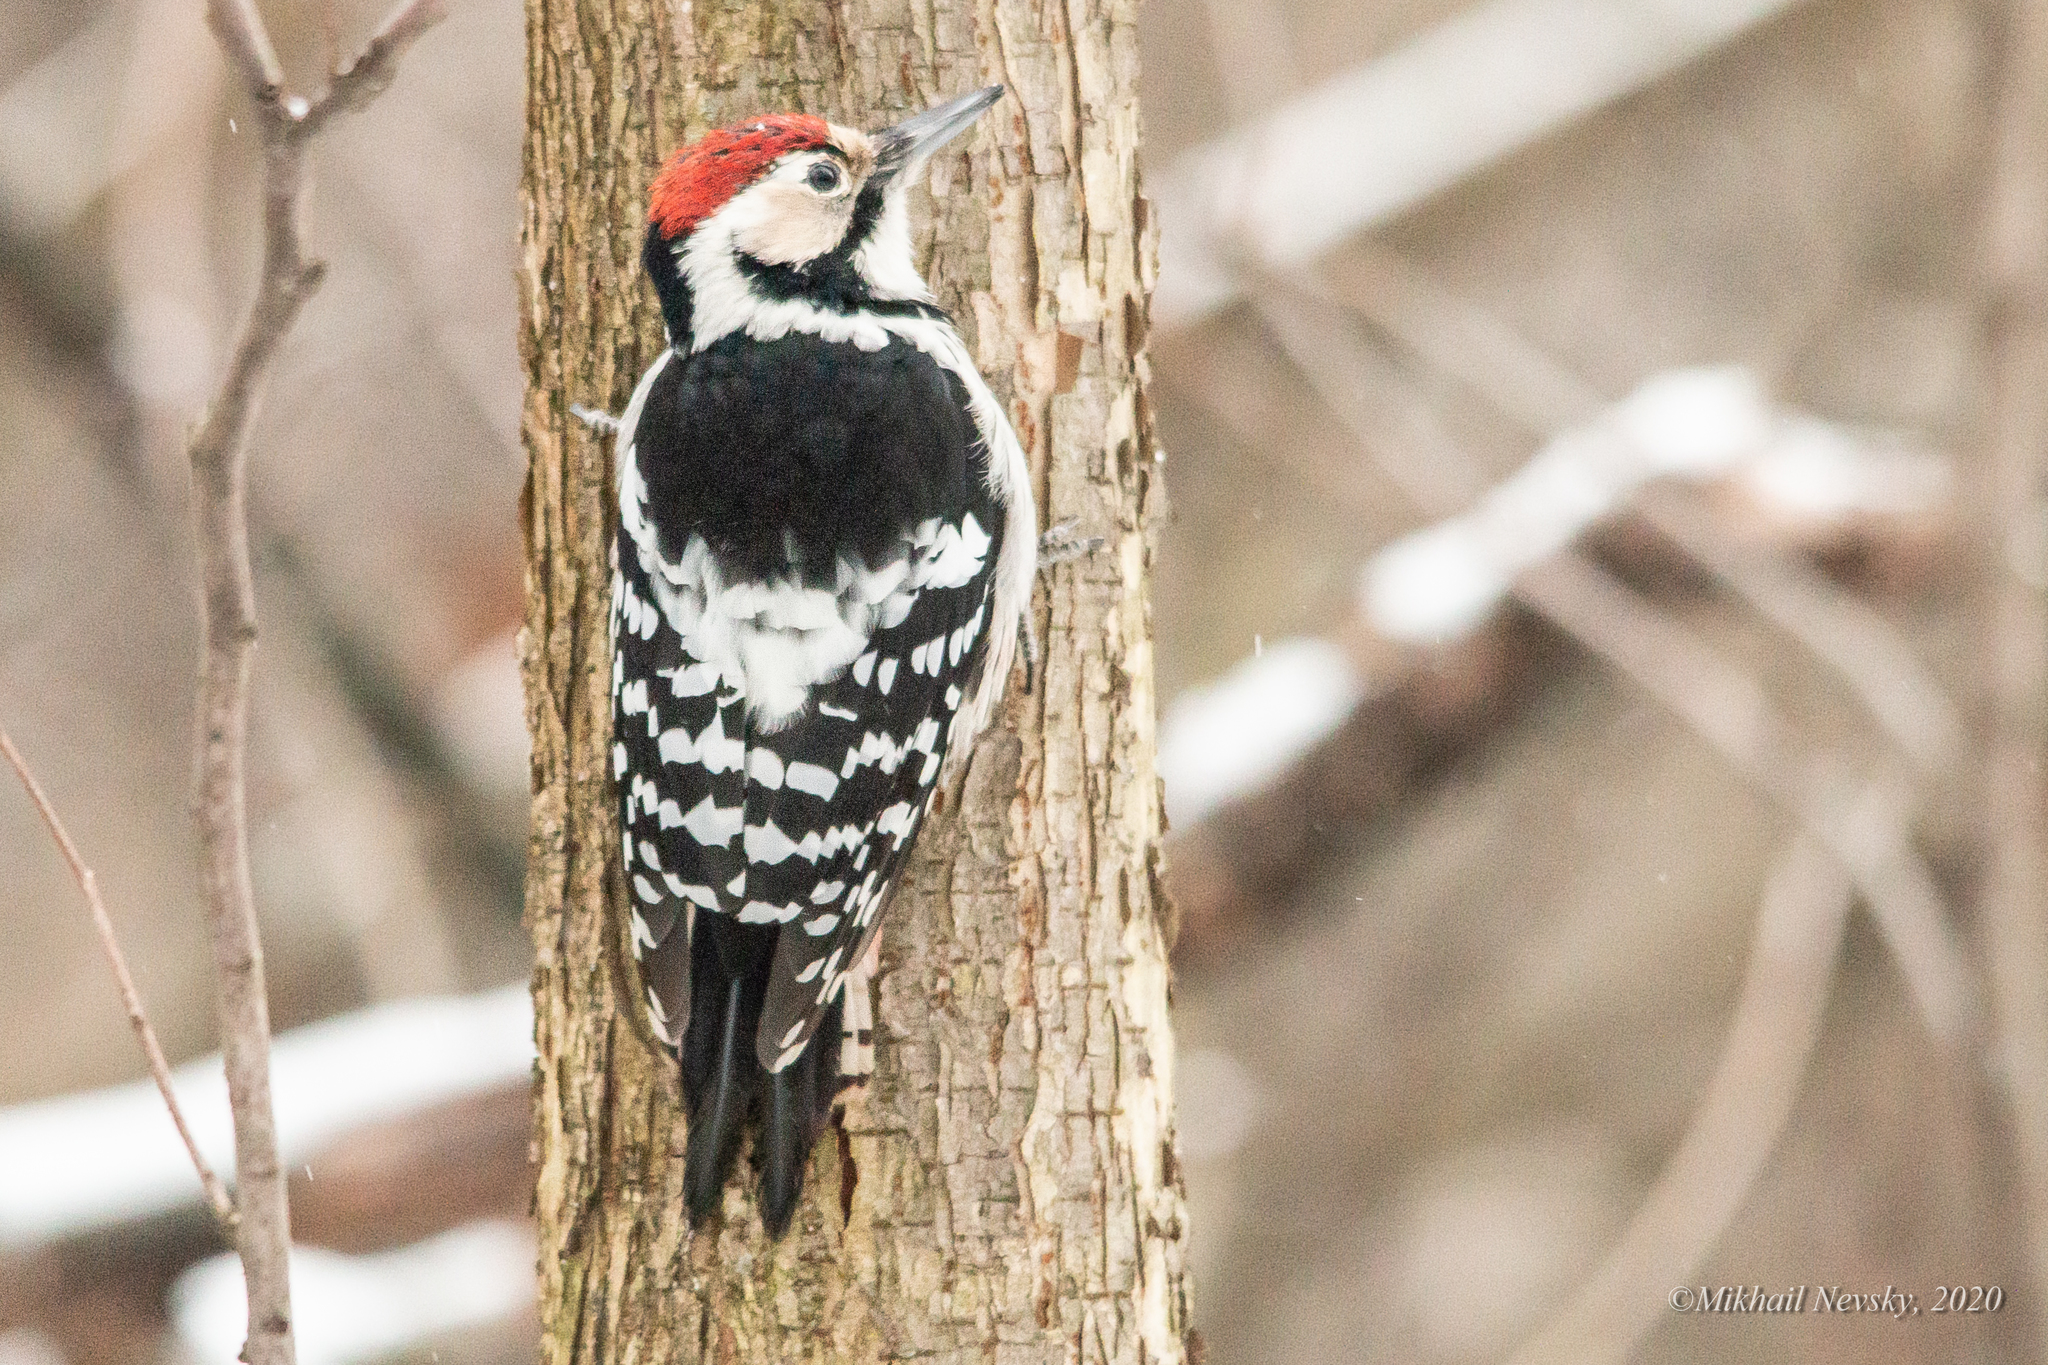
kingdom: Animalia
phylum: Chordata
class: Aves
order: Piciformes
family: Picidae
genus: Dendrocopos
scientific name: Dendrocopos leucotos
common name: White-backed woodpecker
